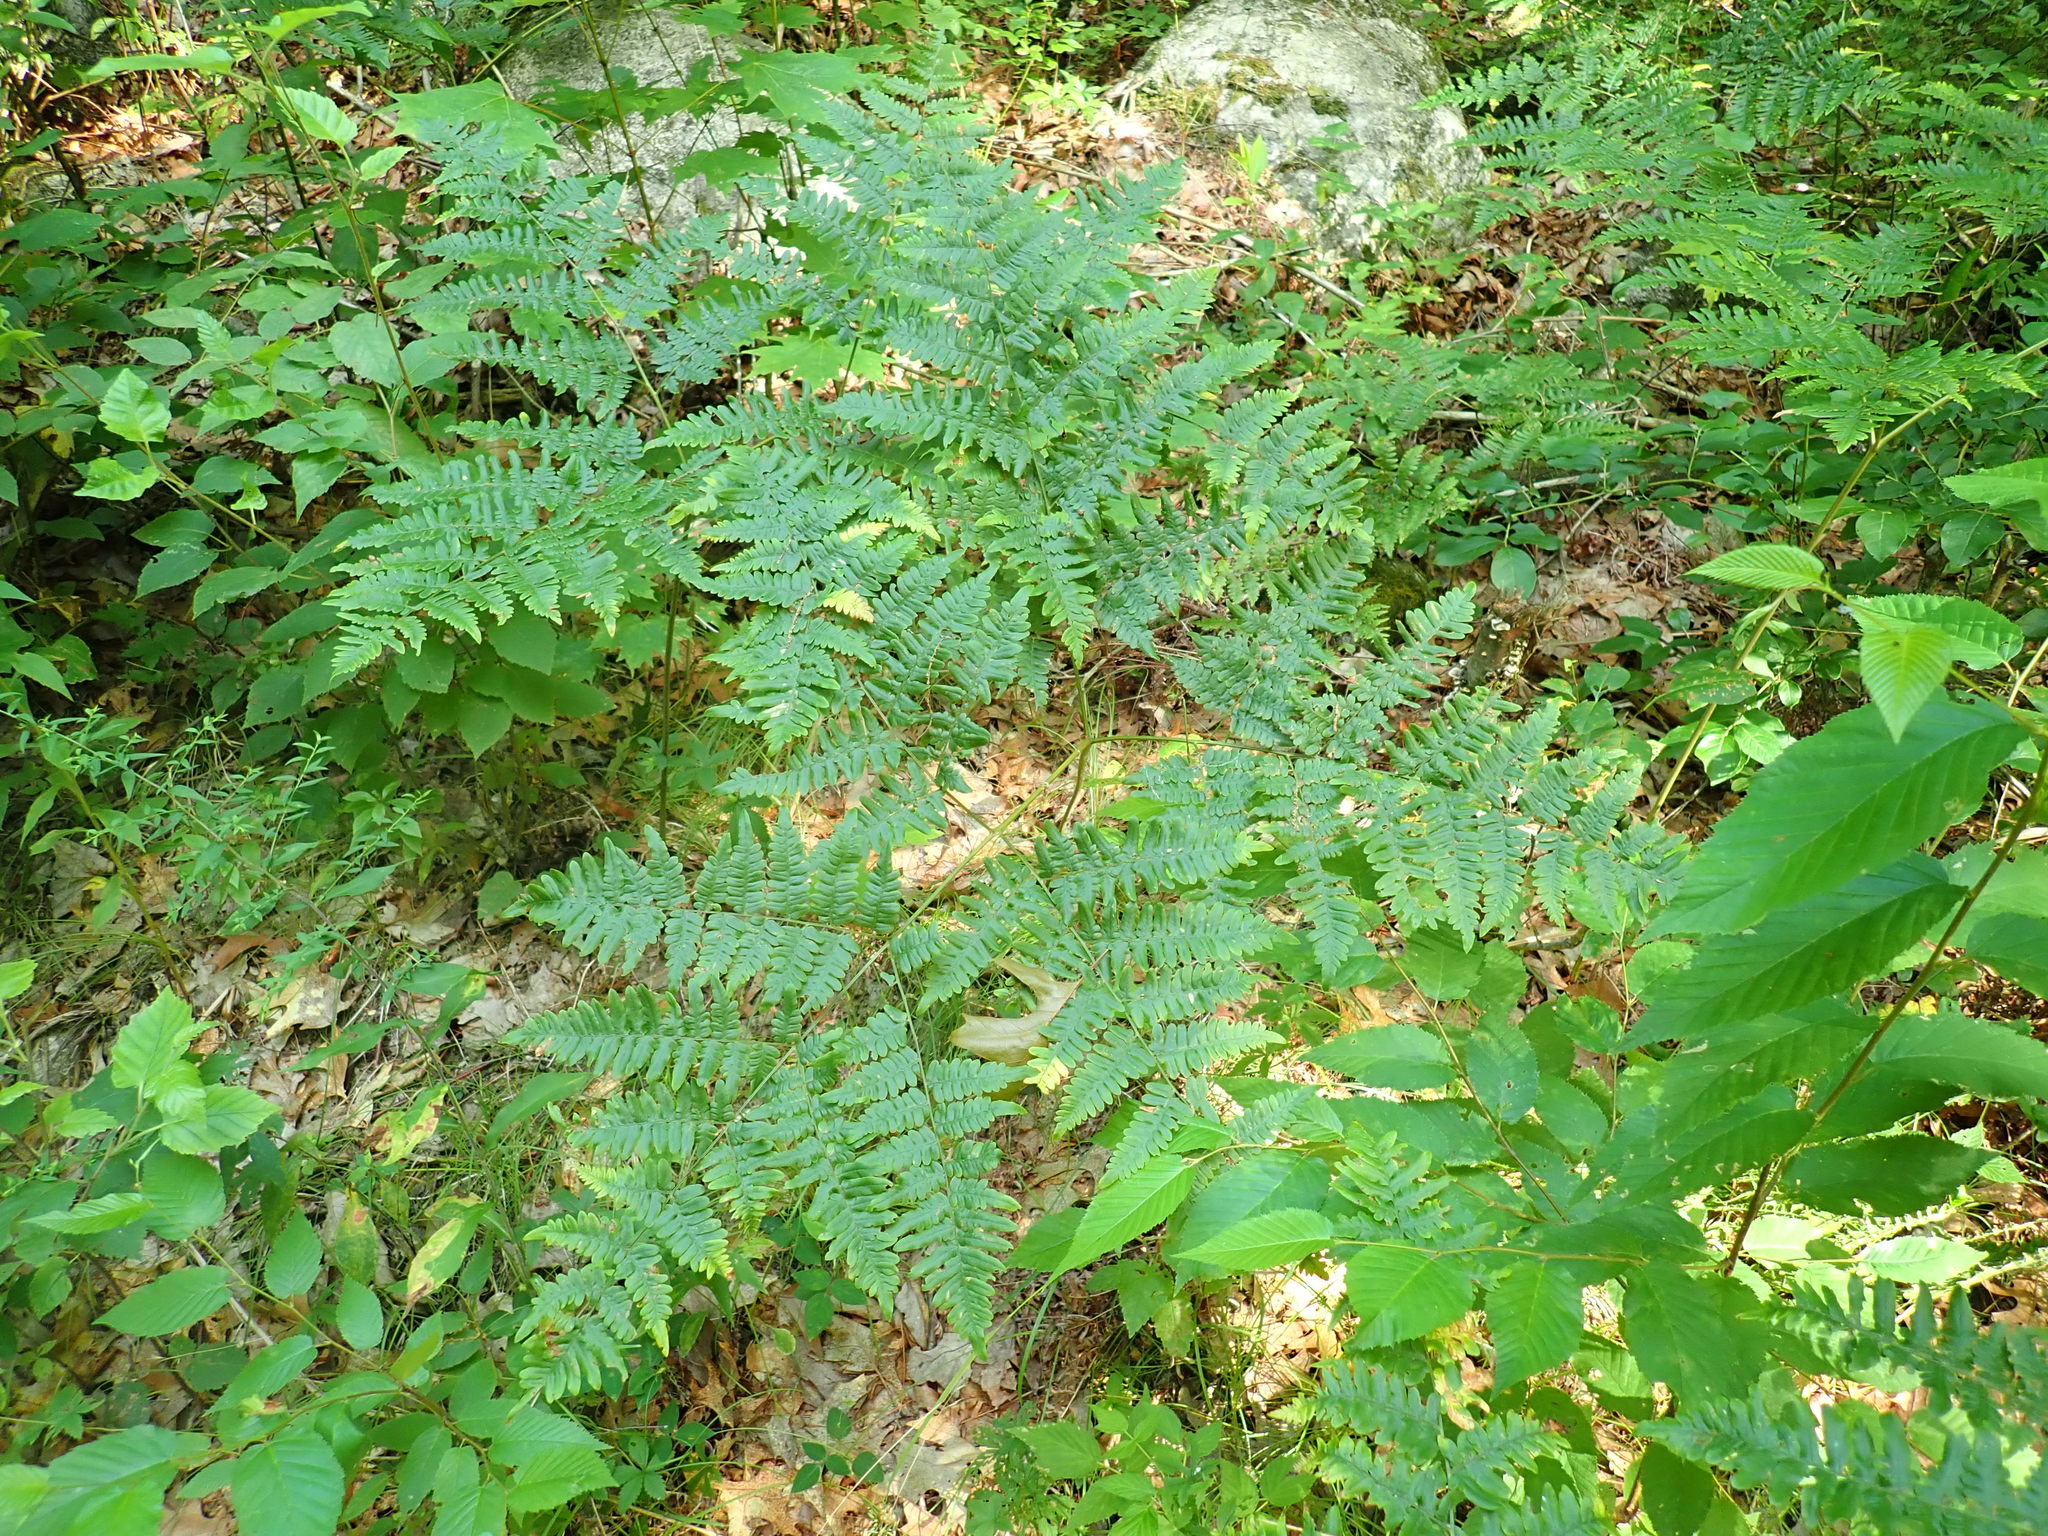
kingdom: Plantae
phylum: Tracheophyta
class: Polypodiopsida
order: Polypodiales
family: Dennstaedtiaceae
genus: Pteridium
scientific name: Pteridium aquilinum
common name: Bracken
